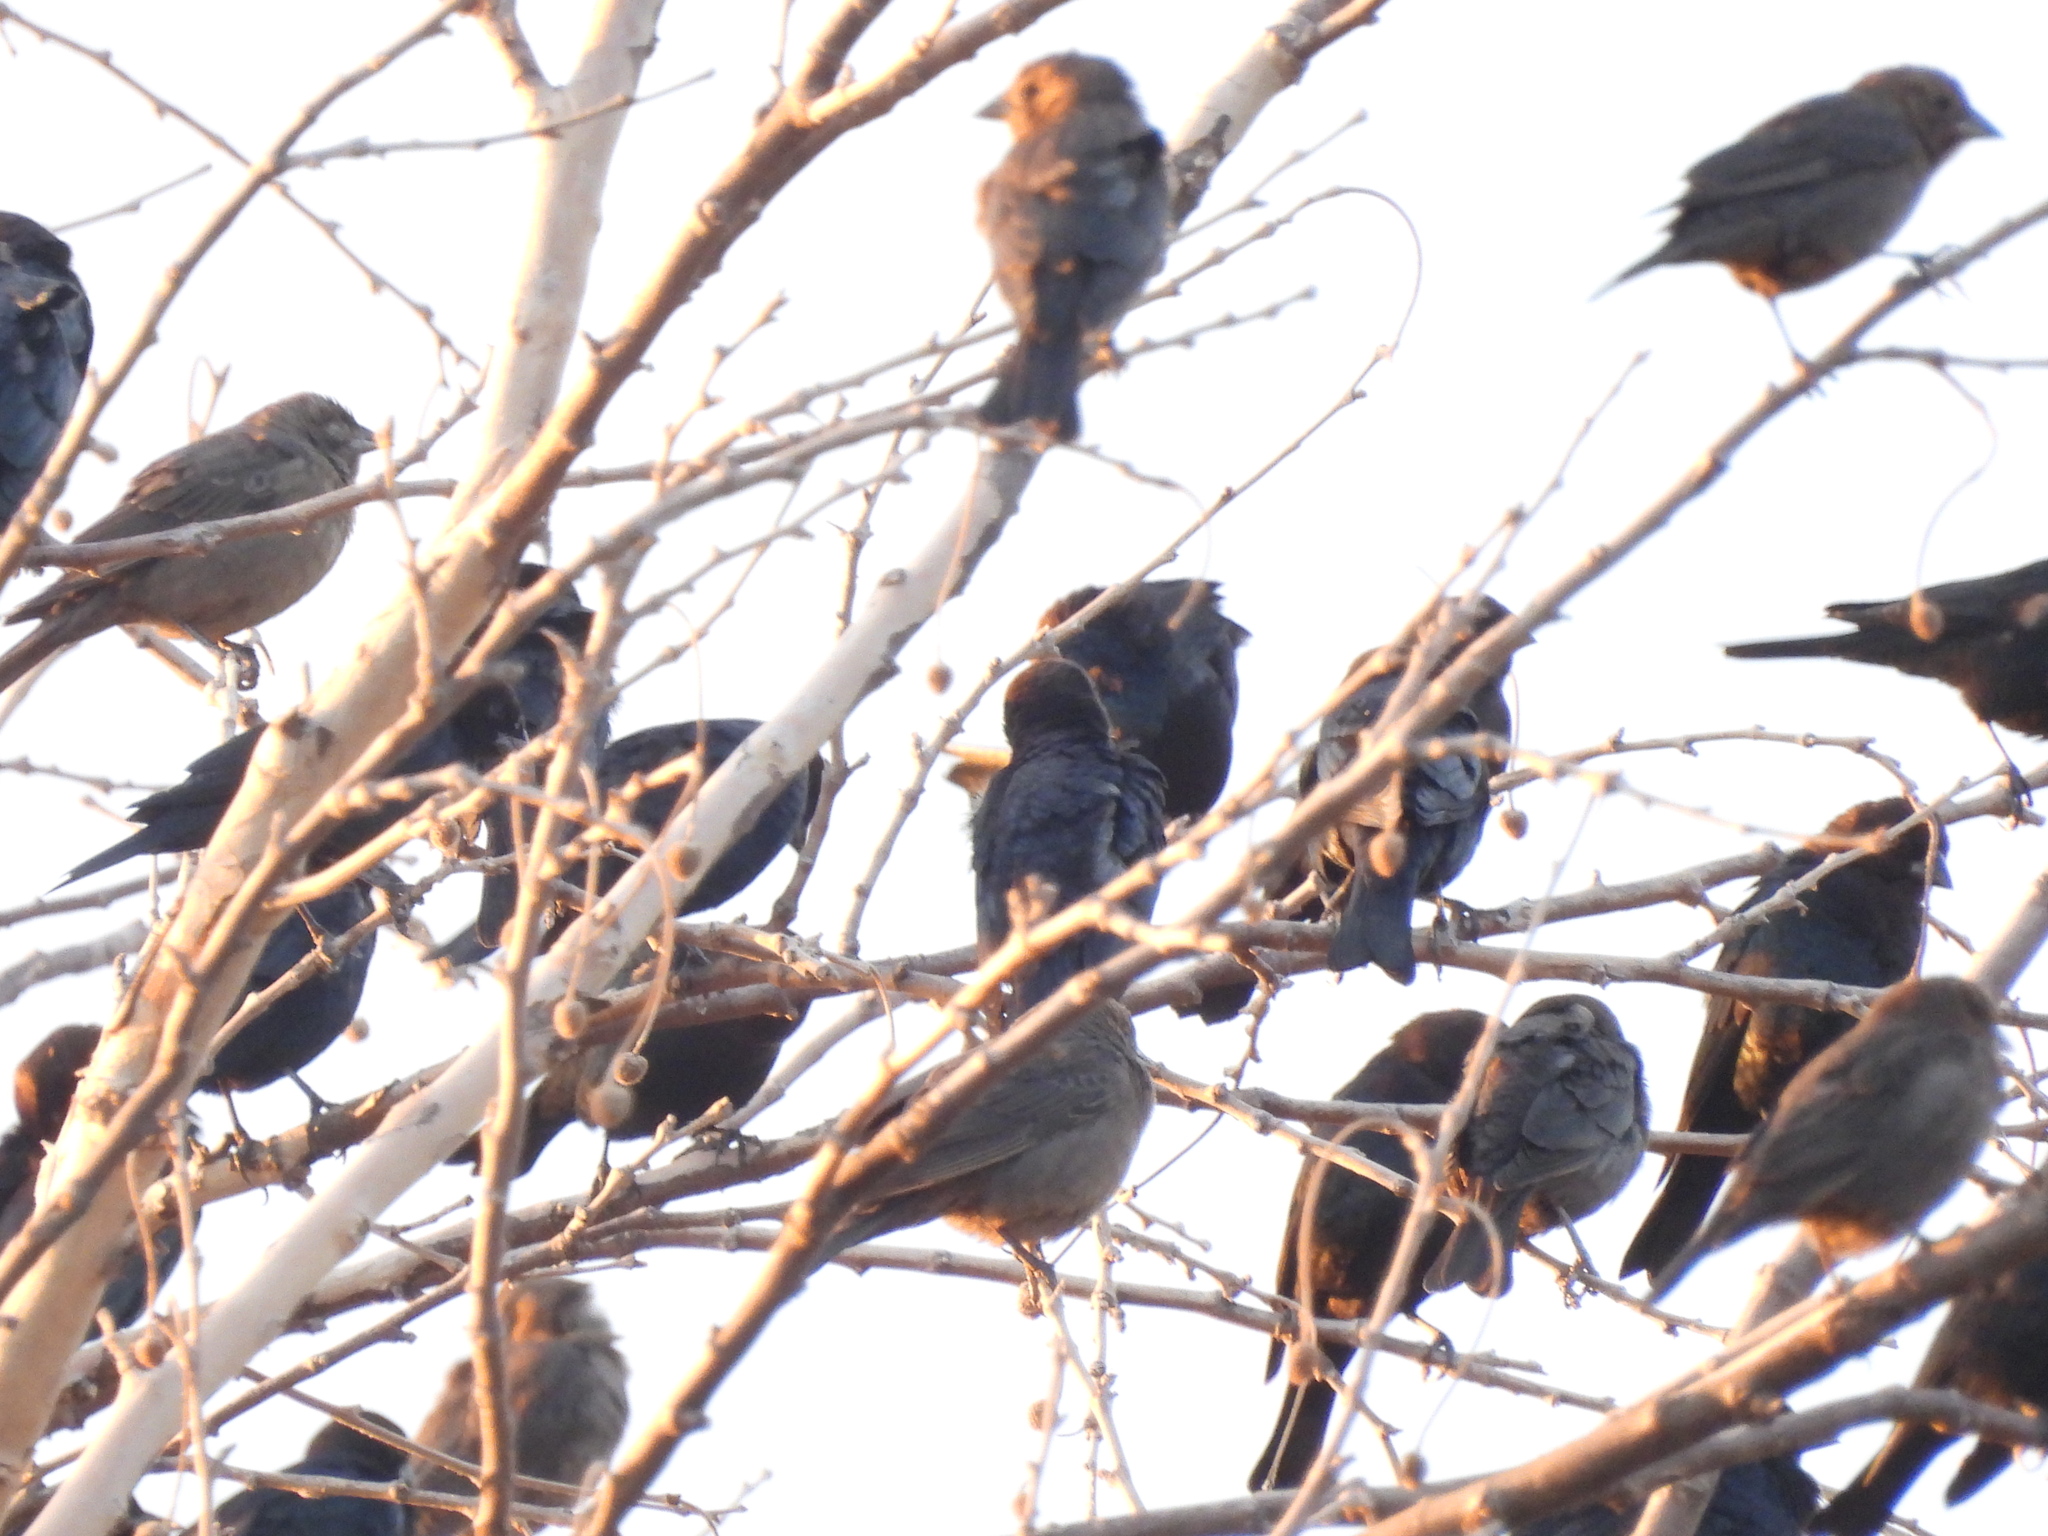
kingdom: Animalia
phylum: Chordata
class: Aves
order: Passeriformes
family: Sturnidae
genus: Sturnus
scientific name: Sturnus vulgaris
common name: Common starling
